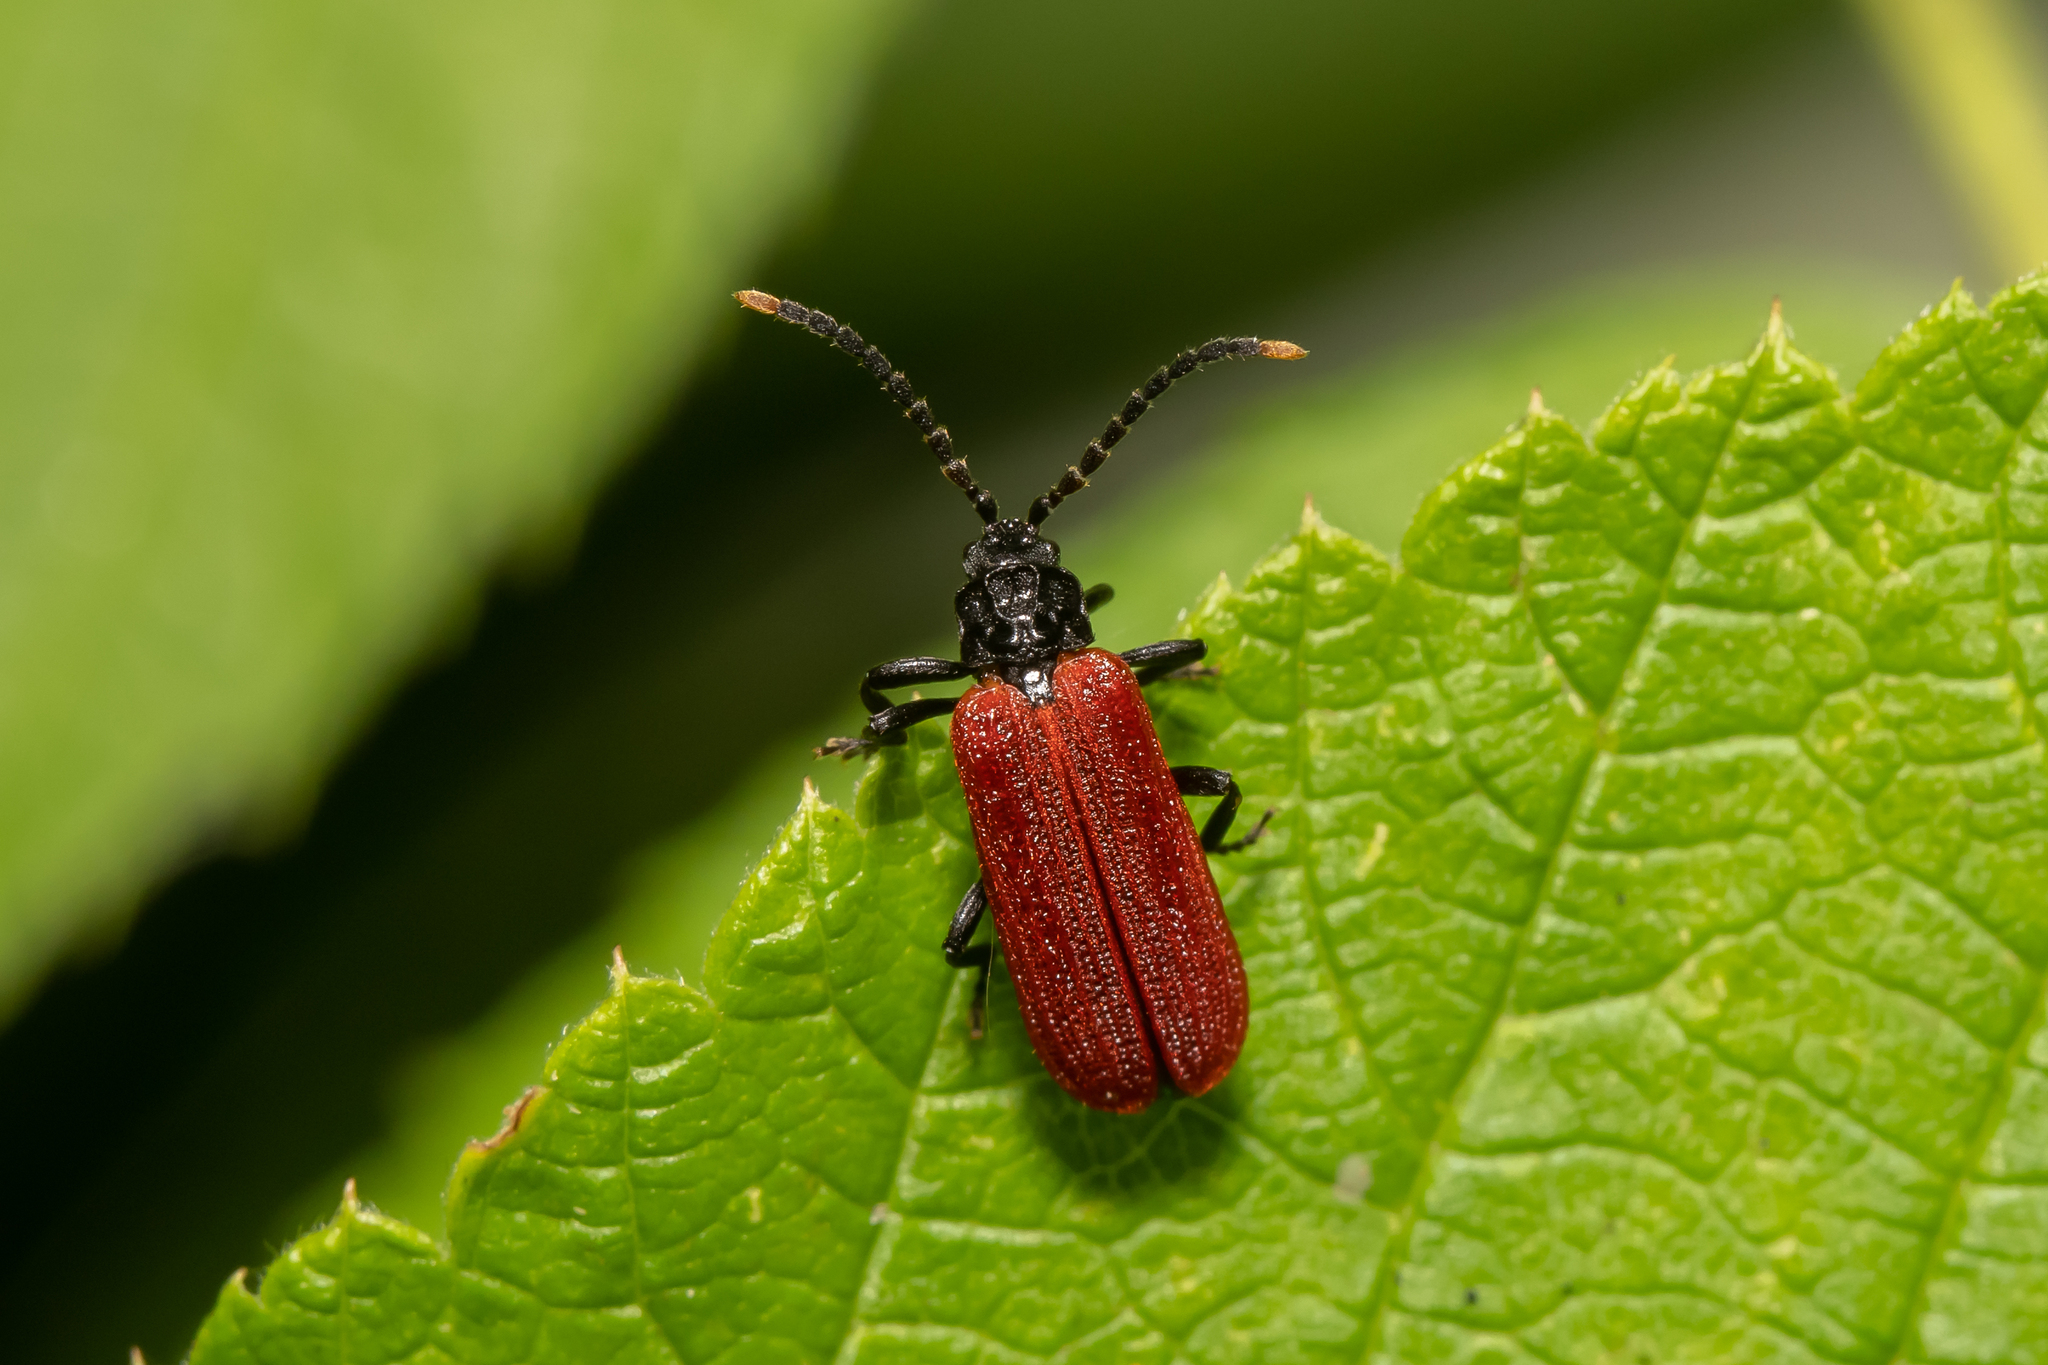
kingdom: Animalia
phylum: Arthropoda
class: Insecta
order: Coleoptera
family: Lycidae
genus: Platycis
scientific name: Platycis minutus
